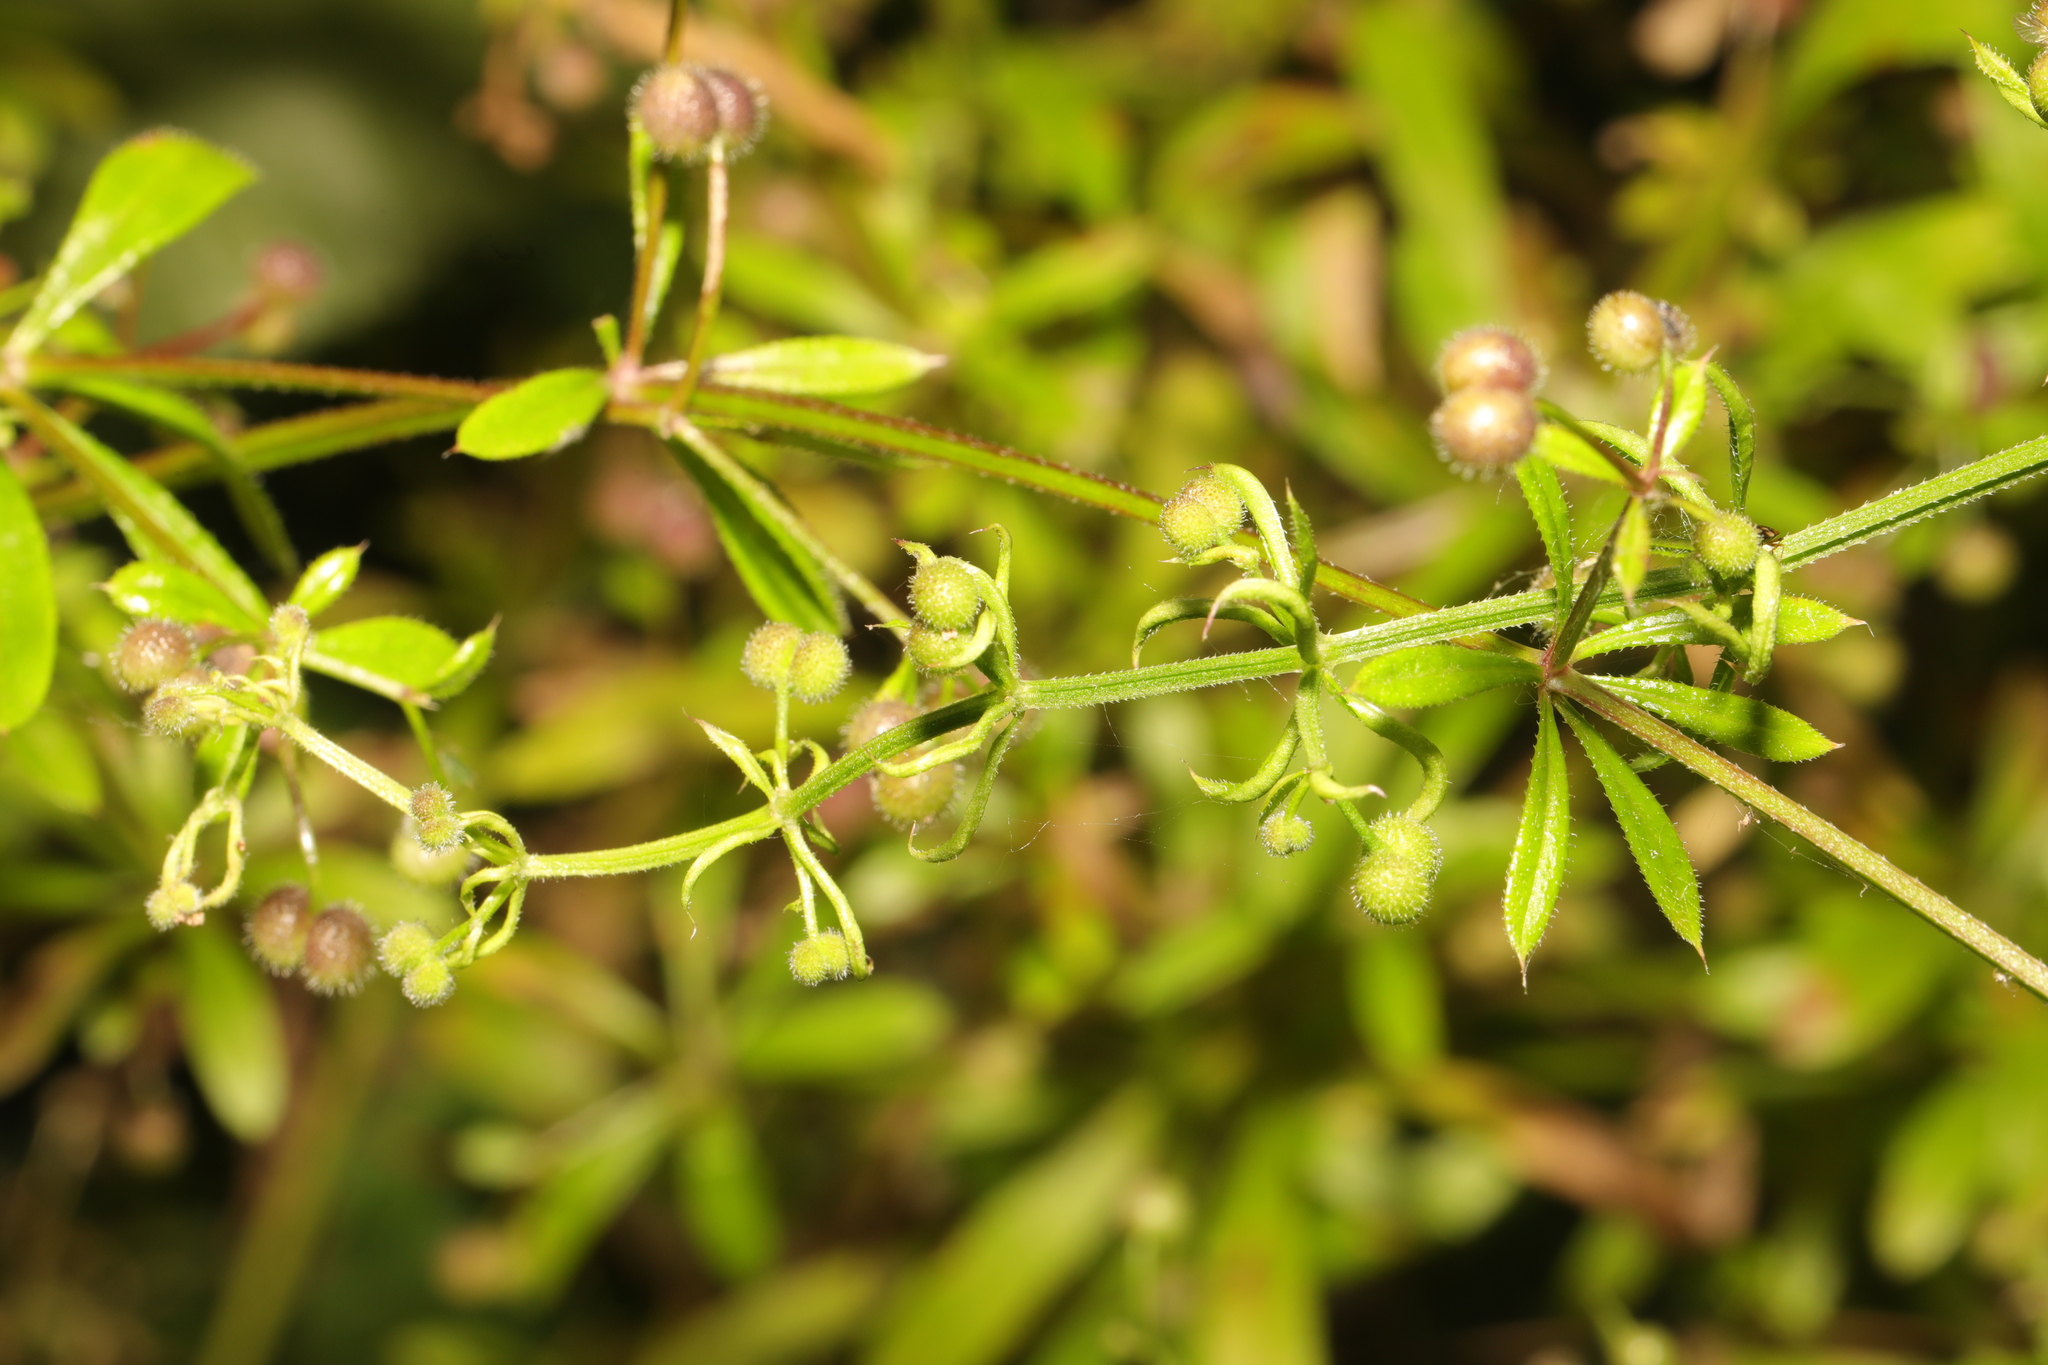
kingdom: Plantae
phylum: Tracheophyta
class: Magnoliopsida
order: Gentianales
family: Rubiaceae
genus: Galium
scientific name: Galium aparine
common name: Cleavers
